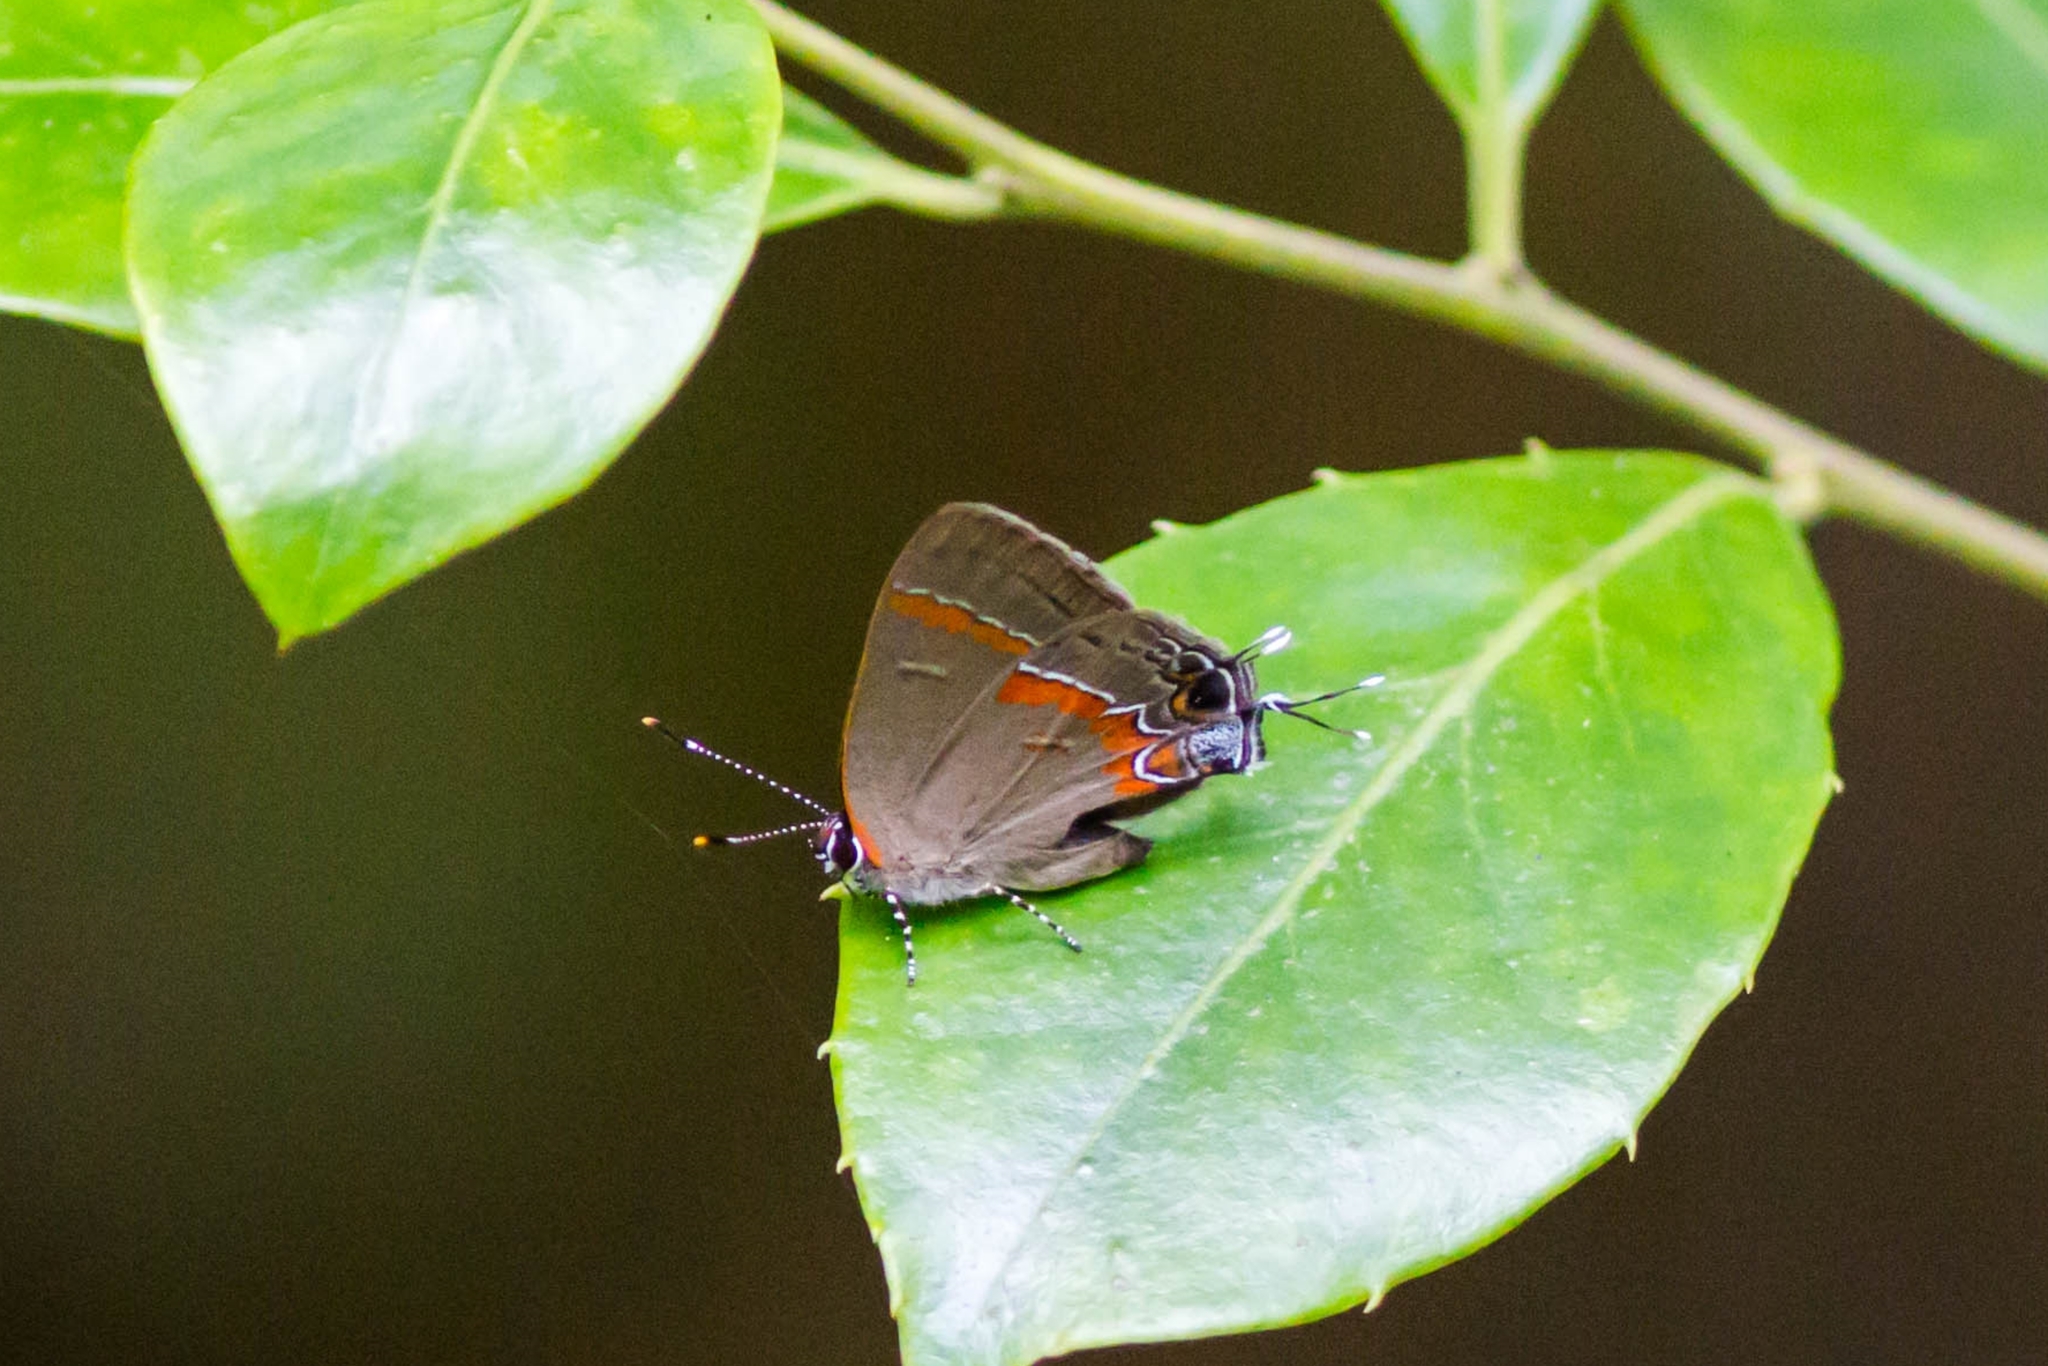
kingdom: Animalia
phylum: Arthropoda
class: Insecta
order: Lepidoptera
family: Lycaenidae
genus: Calycopis
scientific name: Calycopis cecrops
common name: Red-banded hairstreak
